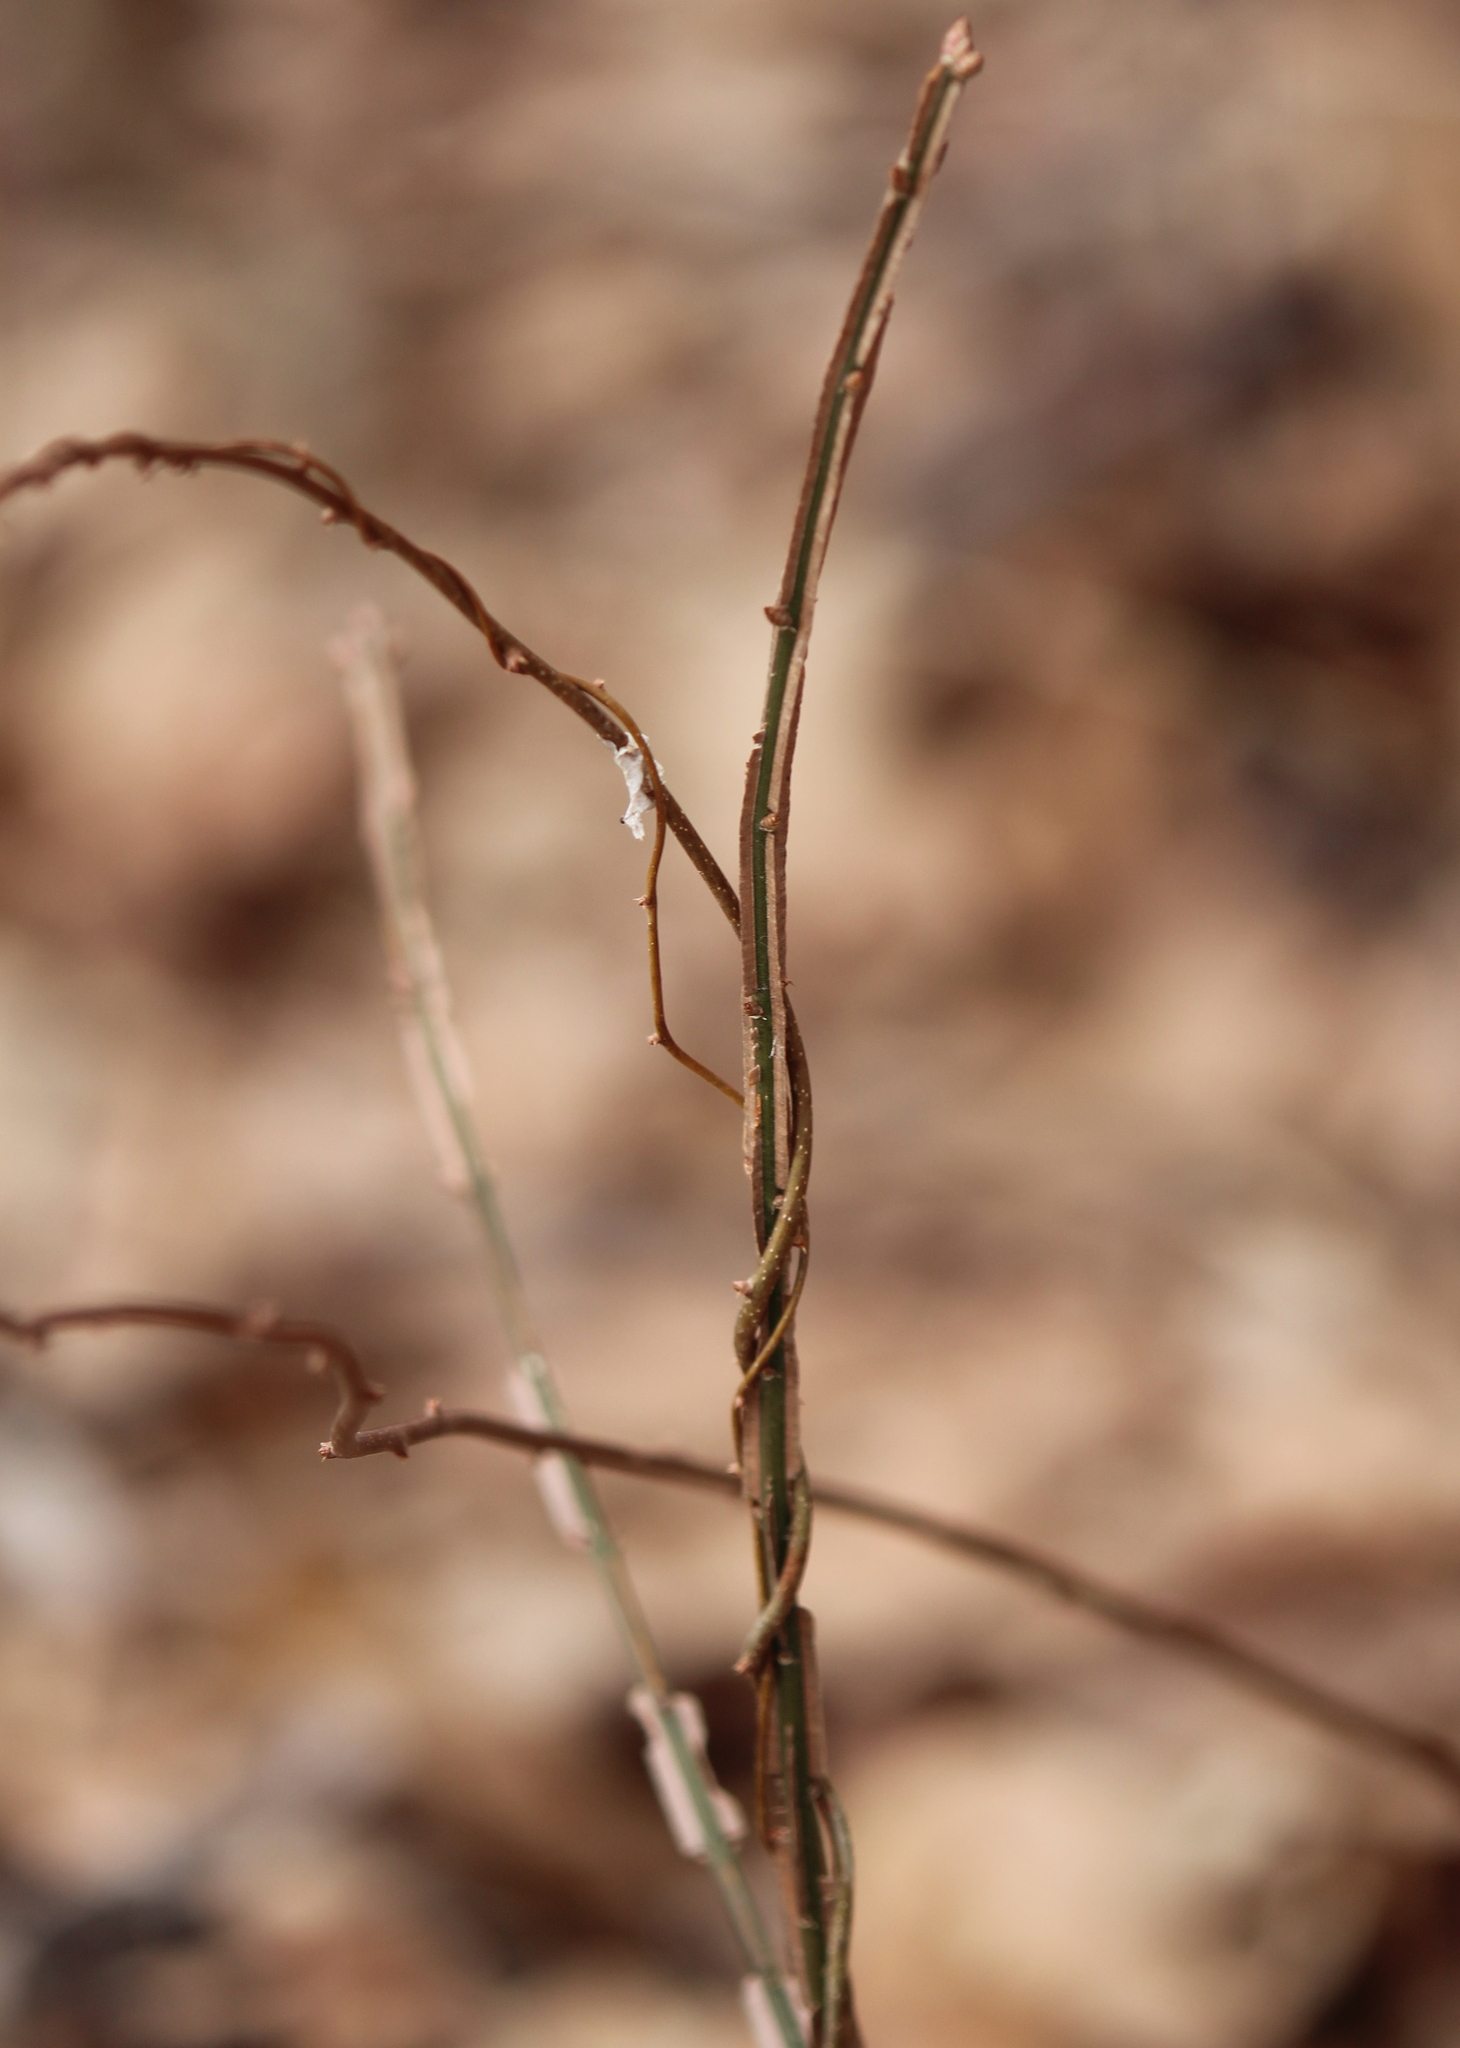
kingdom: Plantae
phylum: Tracheophyta
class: Magnoliopsida
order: Celastrales
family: Celastraceae
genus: Euonymus
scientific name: Euonymus alatus
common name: Winged euonymus
